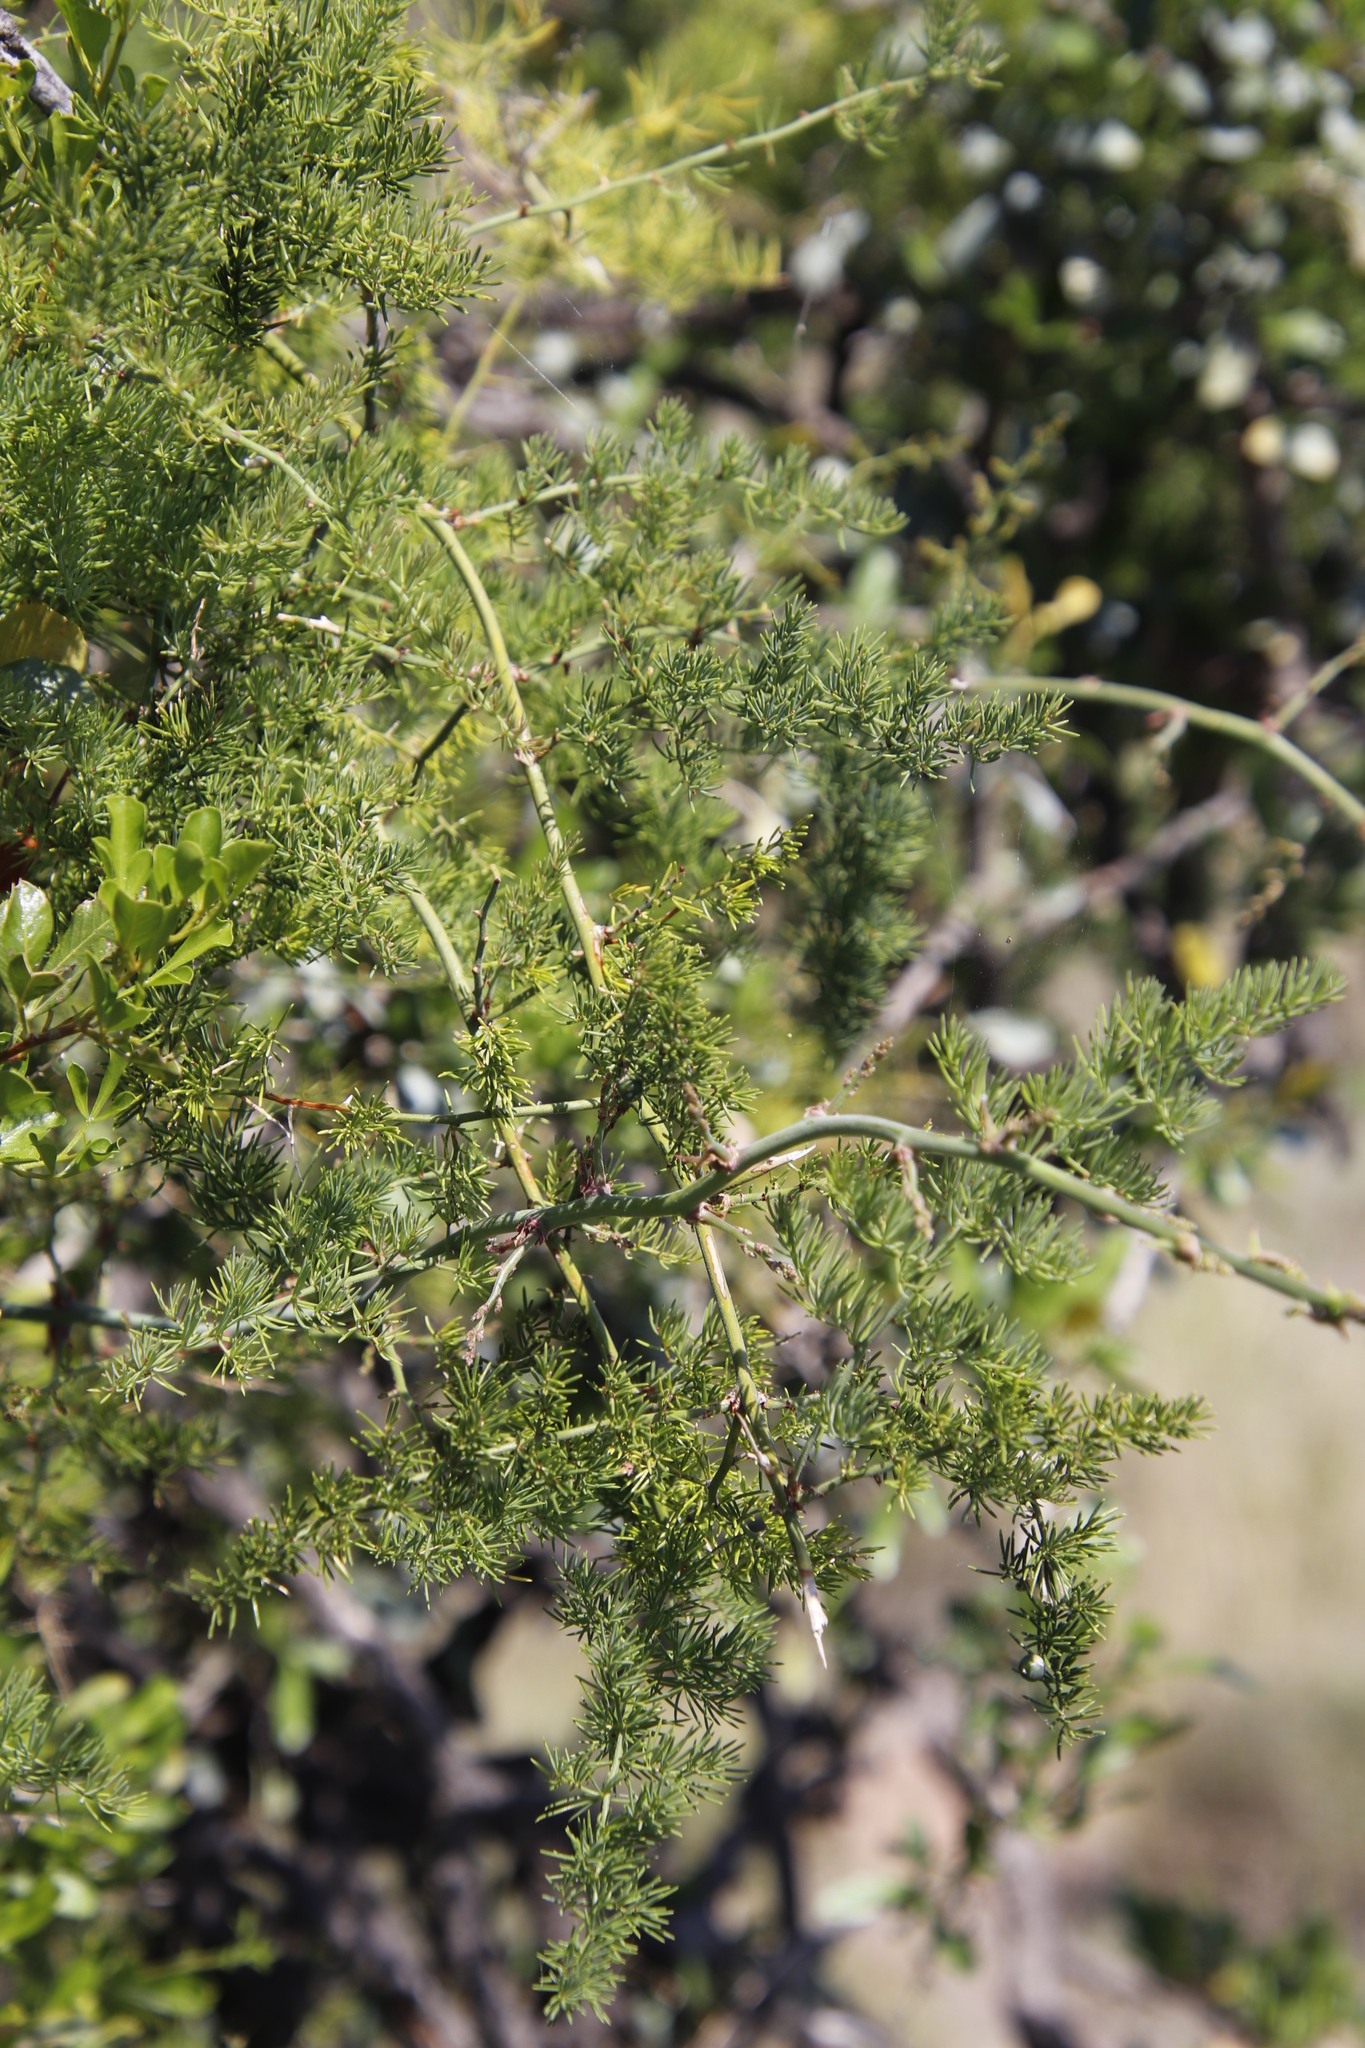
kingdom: Plantae
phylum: Tracheophyta
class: Liliopsida
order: Asparagales
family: Asparagaceae
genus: Asparagus
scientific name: Asparagus africanus
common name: Asparagus-fern
